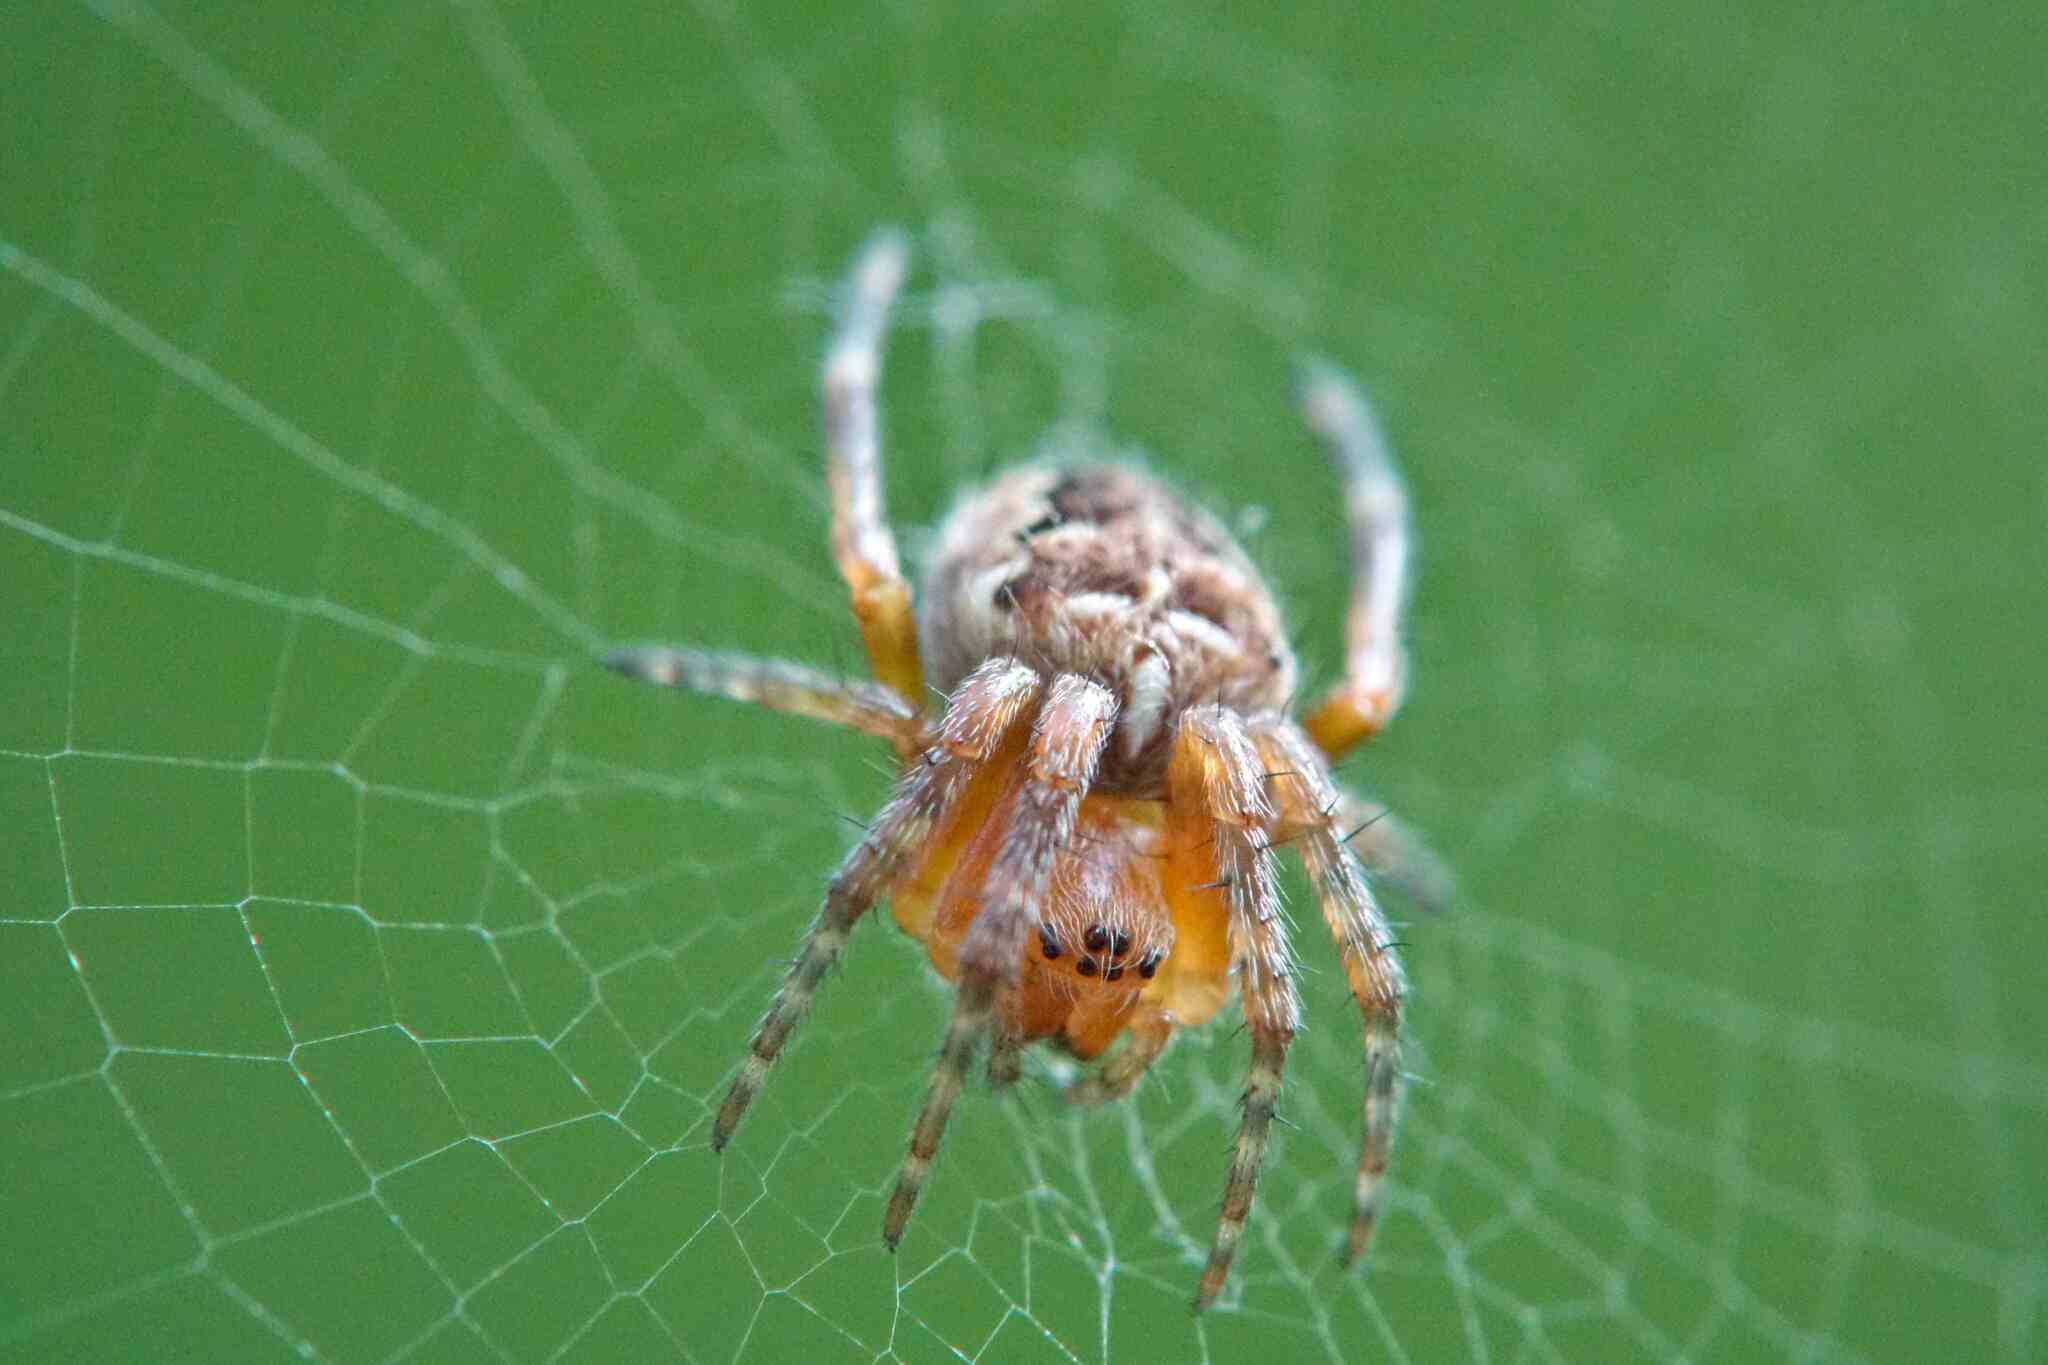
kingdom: Animalia
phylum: Arthropoda
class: Arachnida
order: Araneae
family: Araneidae
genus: Araneus
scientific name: Araneus diadematus
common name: Cross orbweaver
